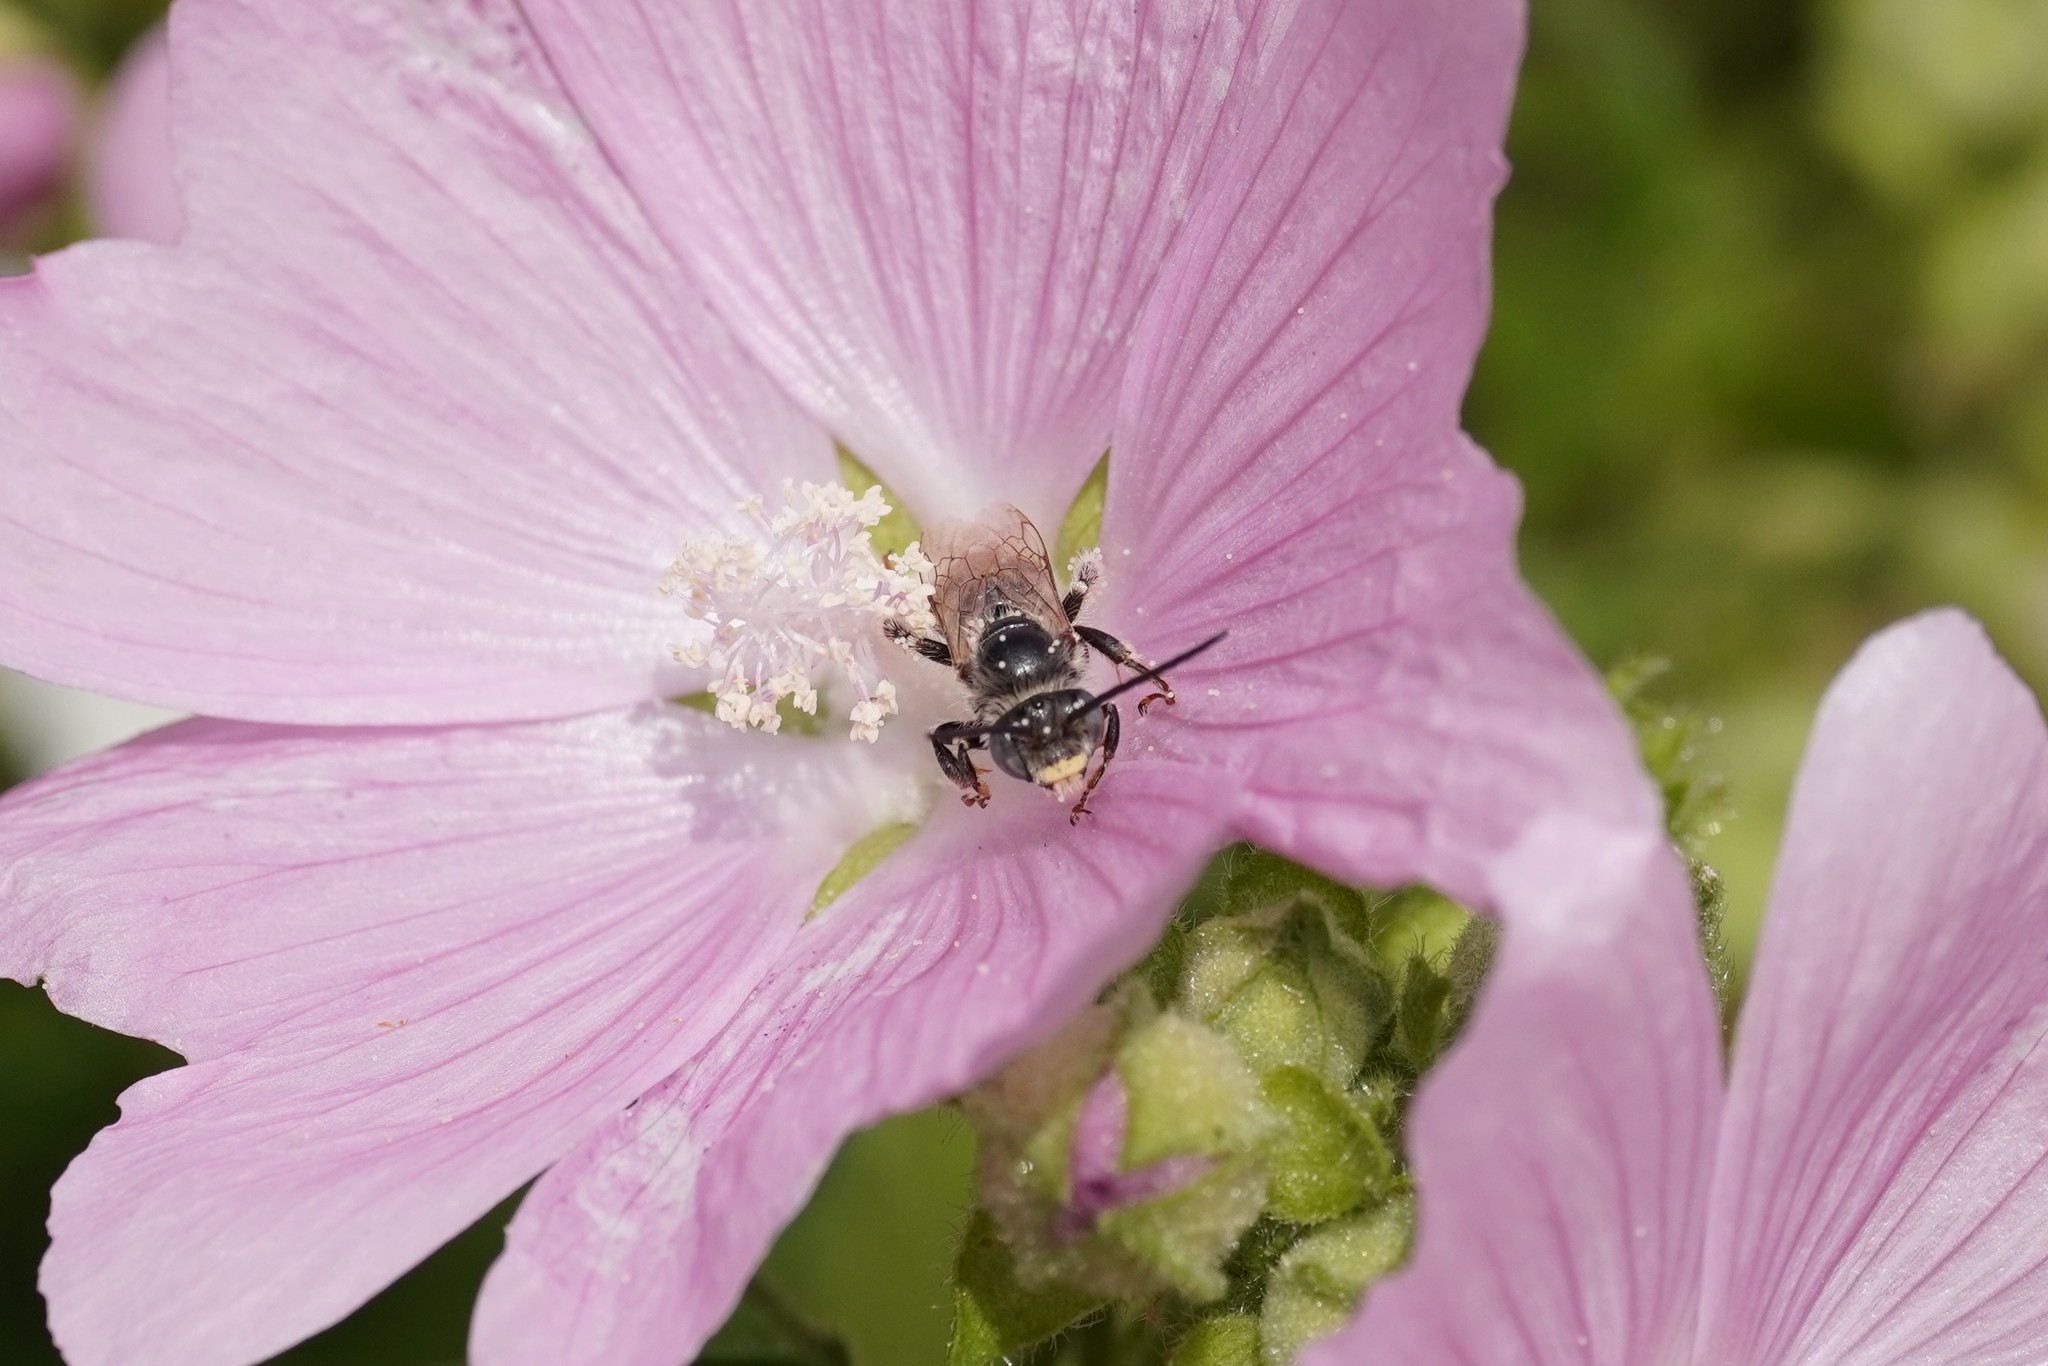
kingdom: Animalia
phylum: Arthropoda
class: Insecta
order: Hymenoptera
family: Apidae
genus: Tetralonia
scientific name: Tetralonia malvae
